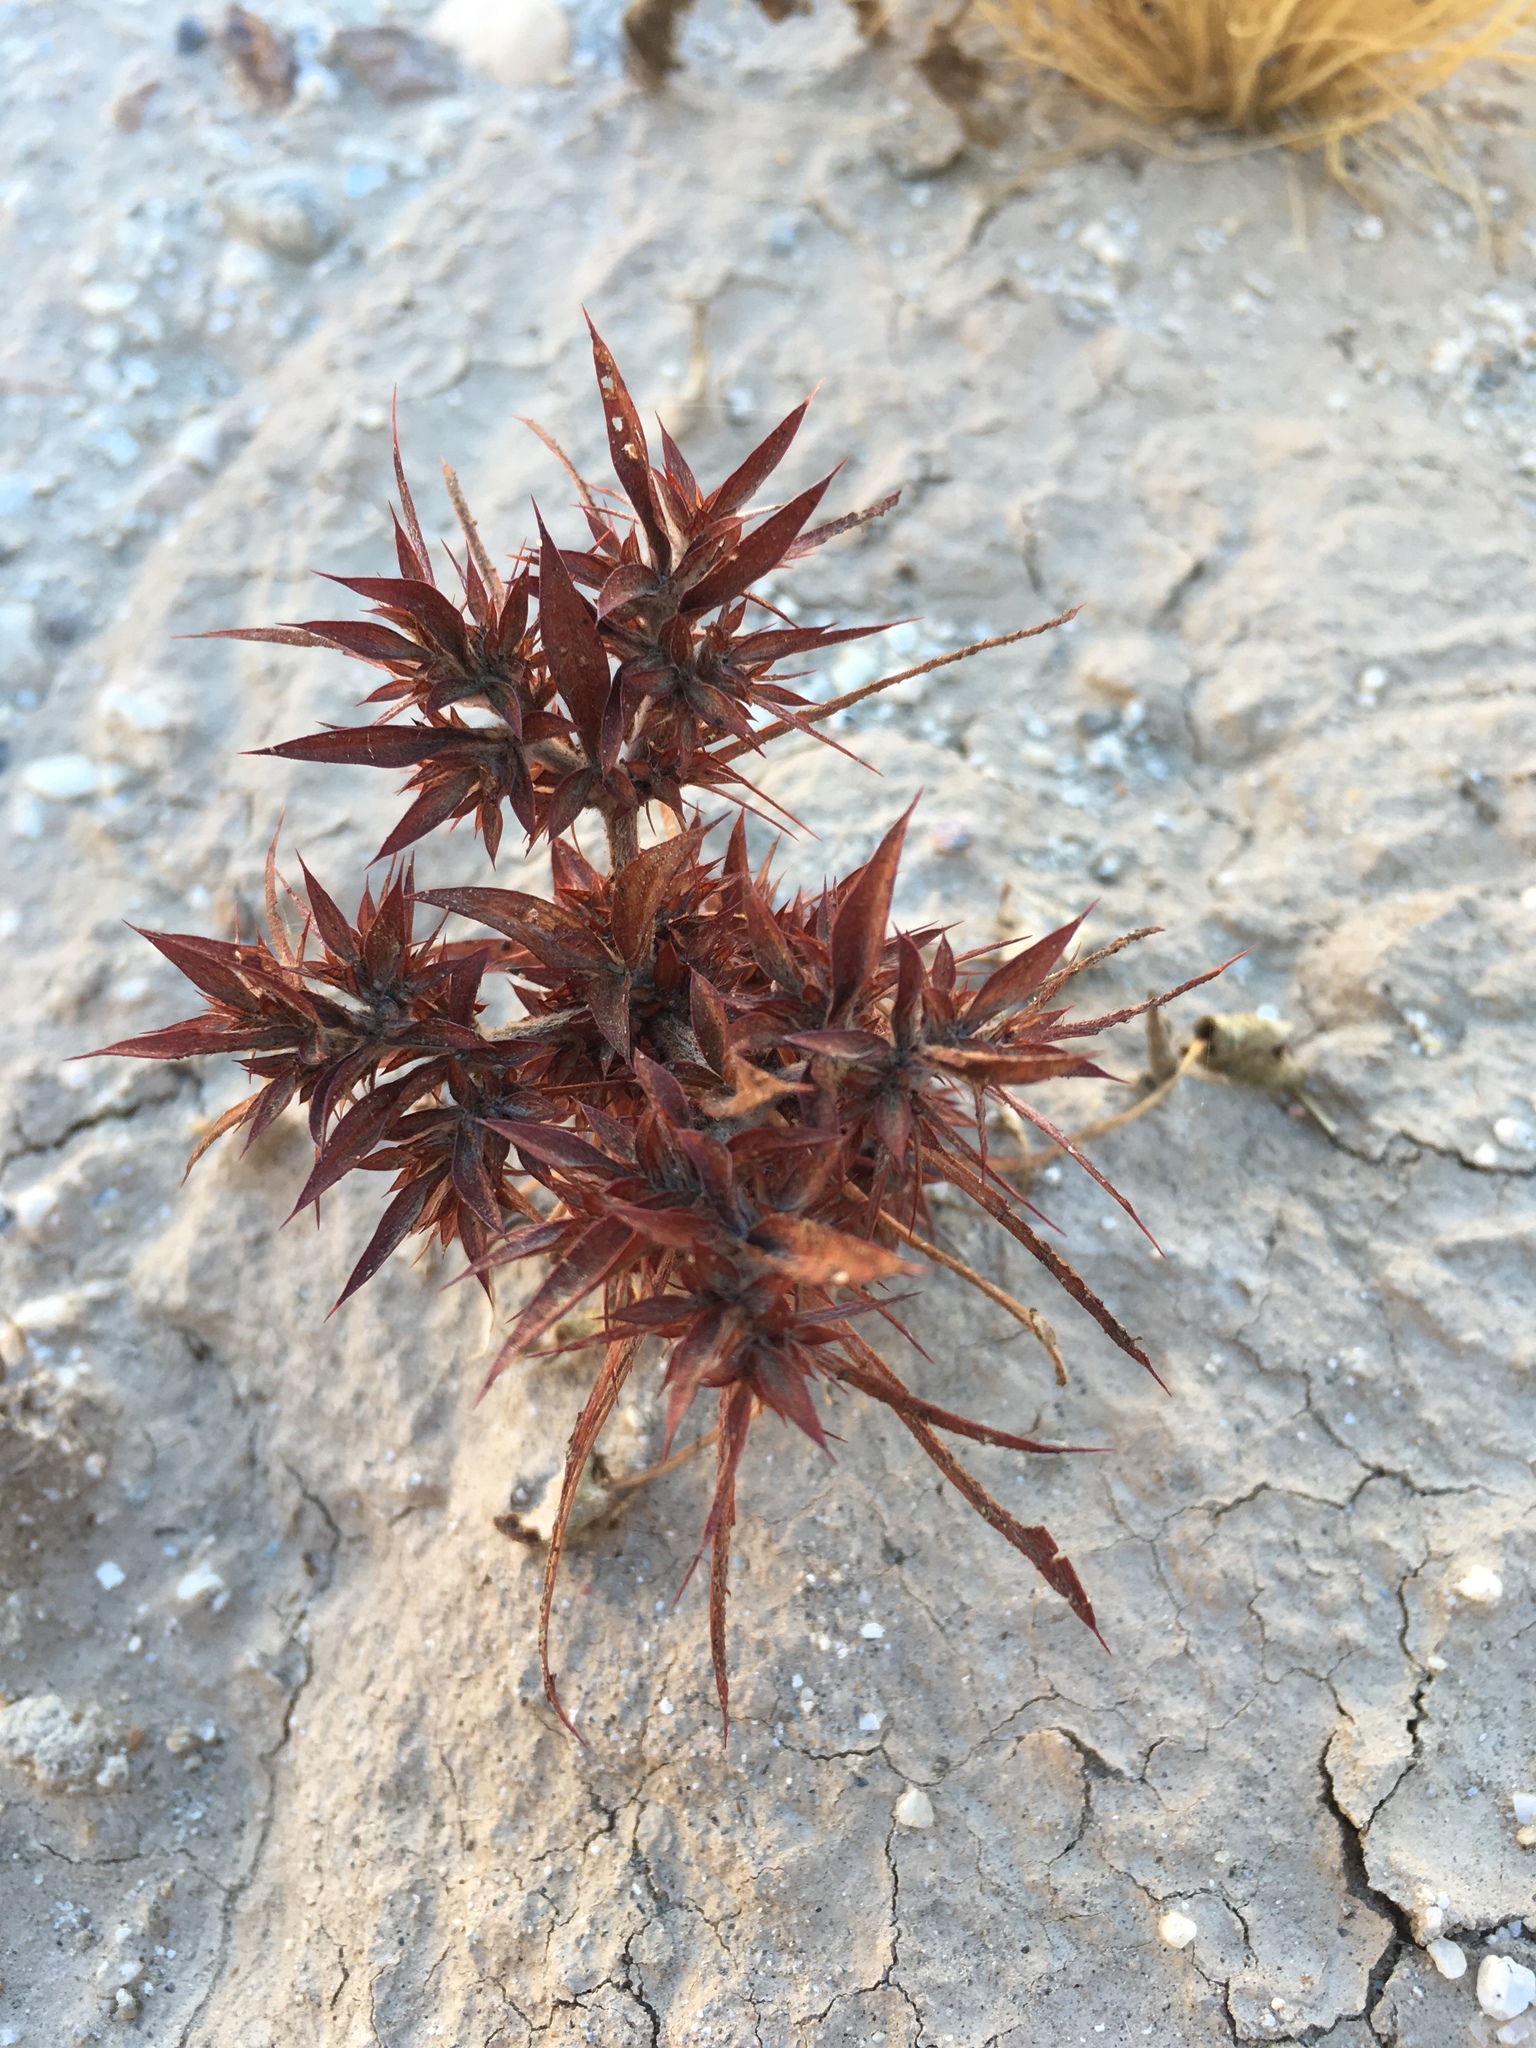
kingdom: Plantae
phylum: Tracheophyta
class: Magnoliopsida
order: Caryophyllales
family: Polygonaceae
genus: Chorizanthe
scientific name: Chorizanthe rigida
